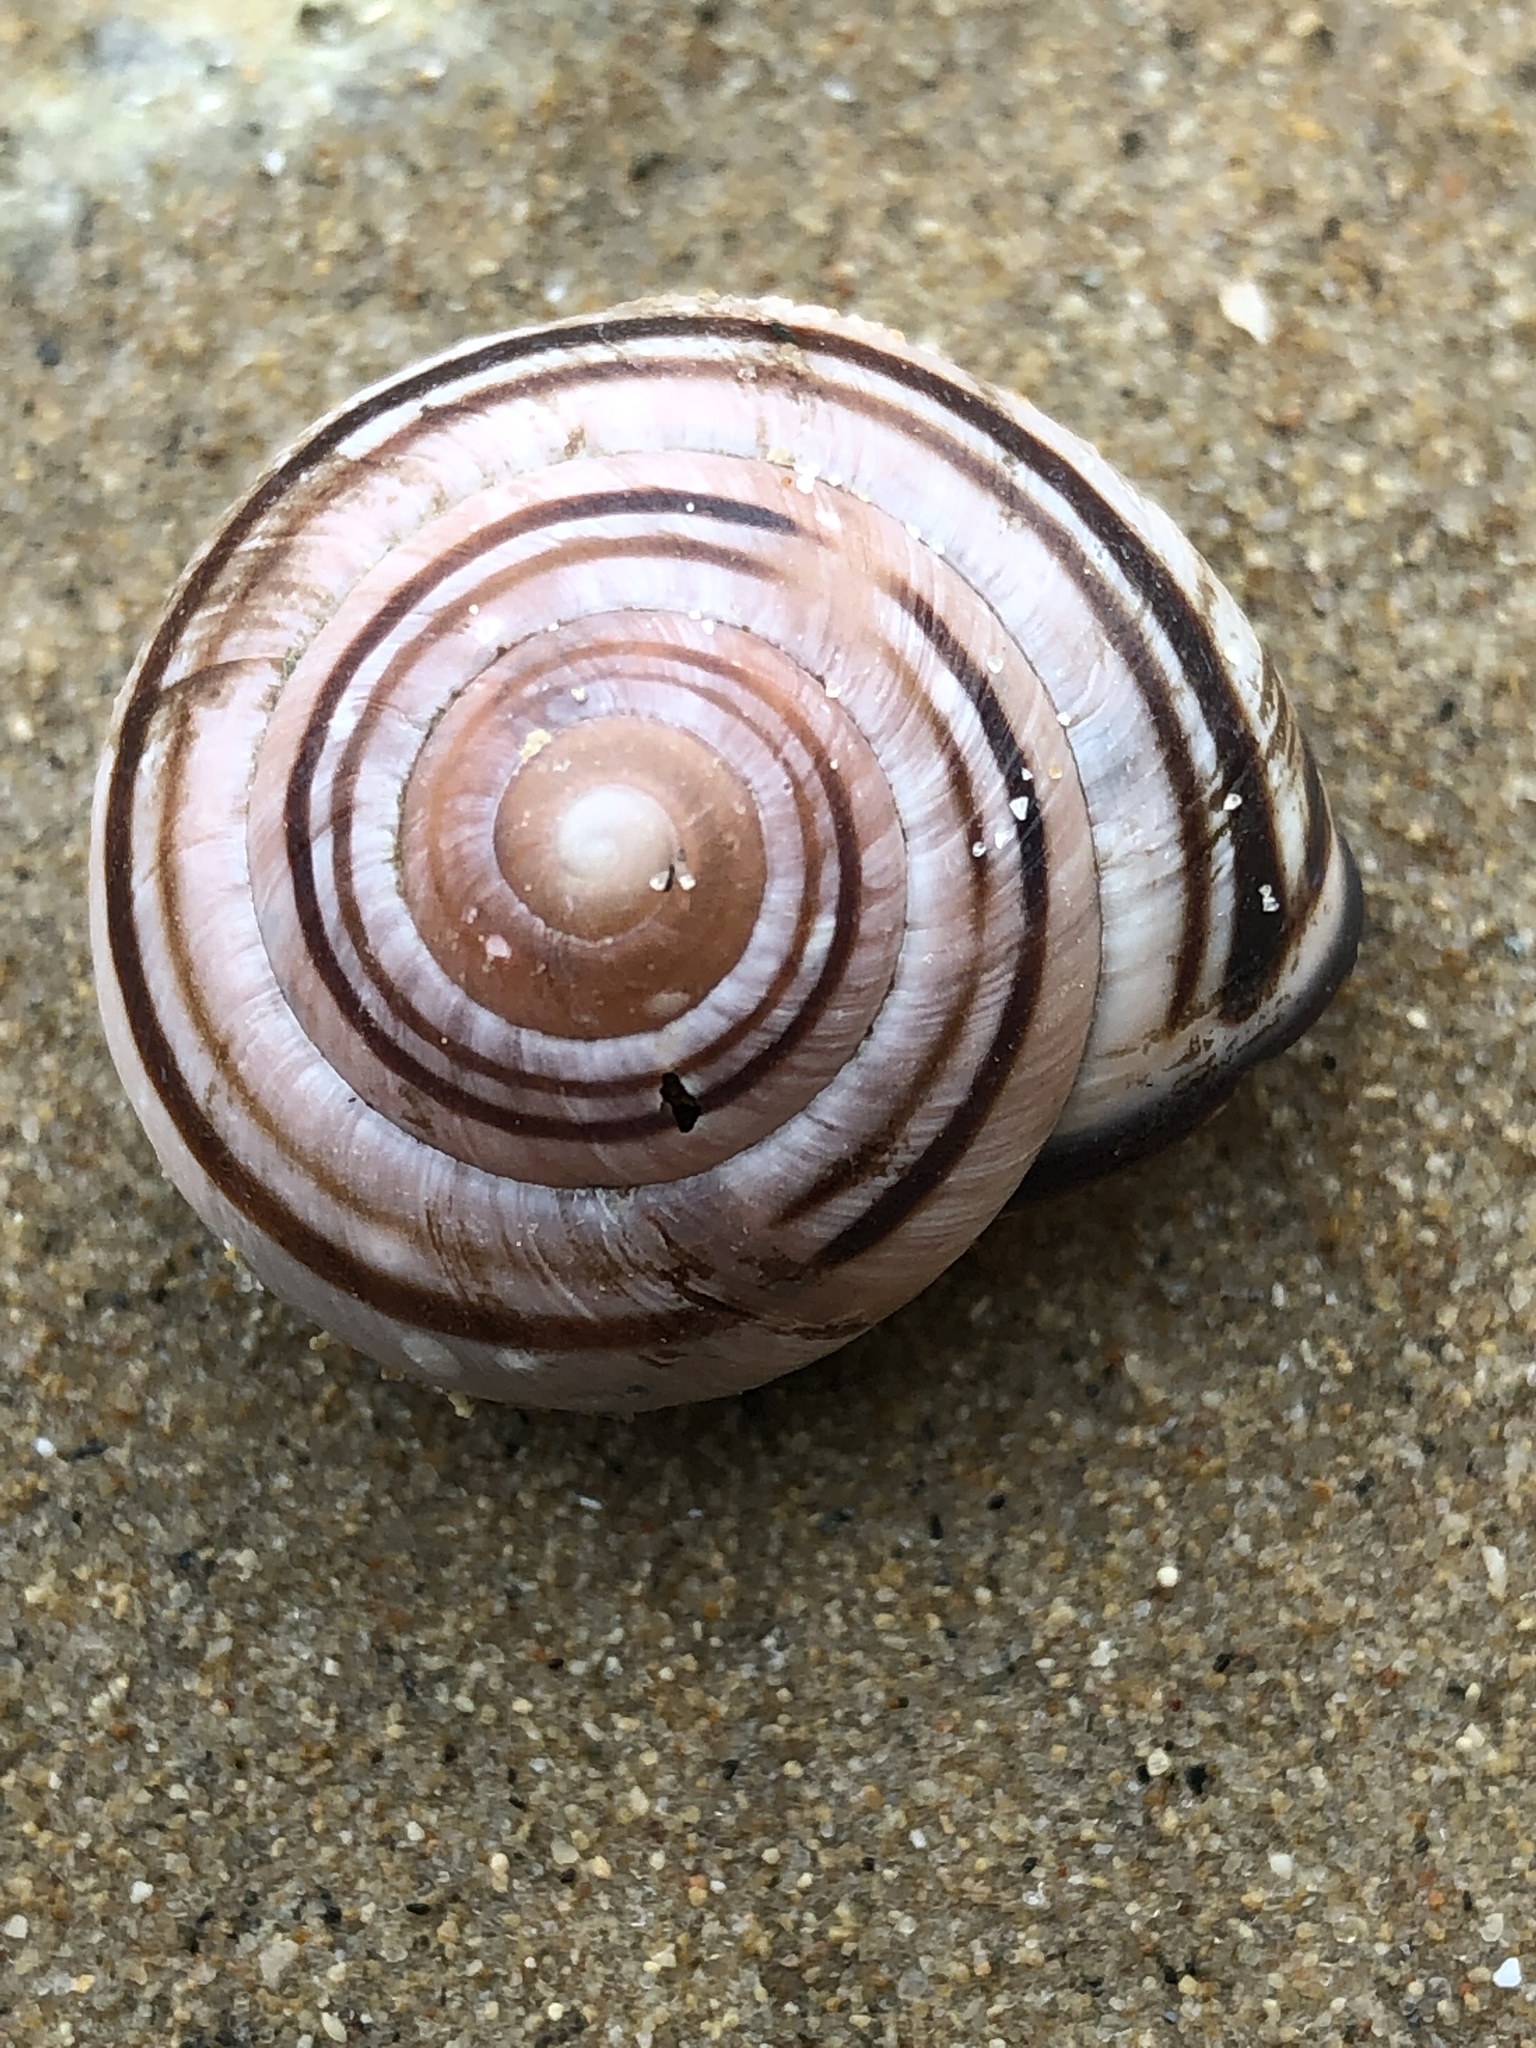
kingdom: Animalia
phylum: Mollusca
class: Gastropoda
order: Stylommatophora
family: Helicidae
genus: Cepaea
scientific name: Cepaea nemoralis
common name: Grovesnail
